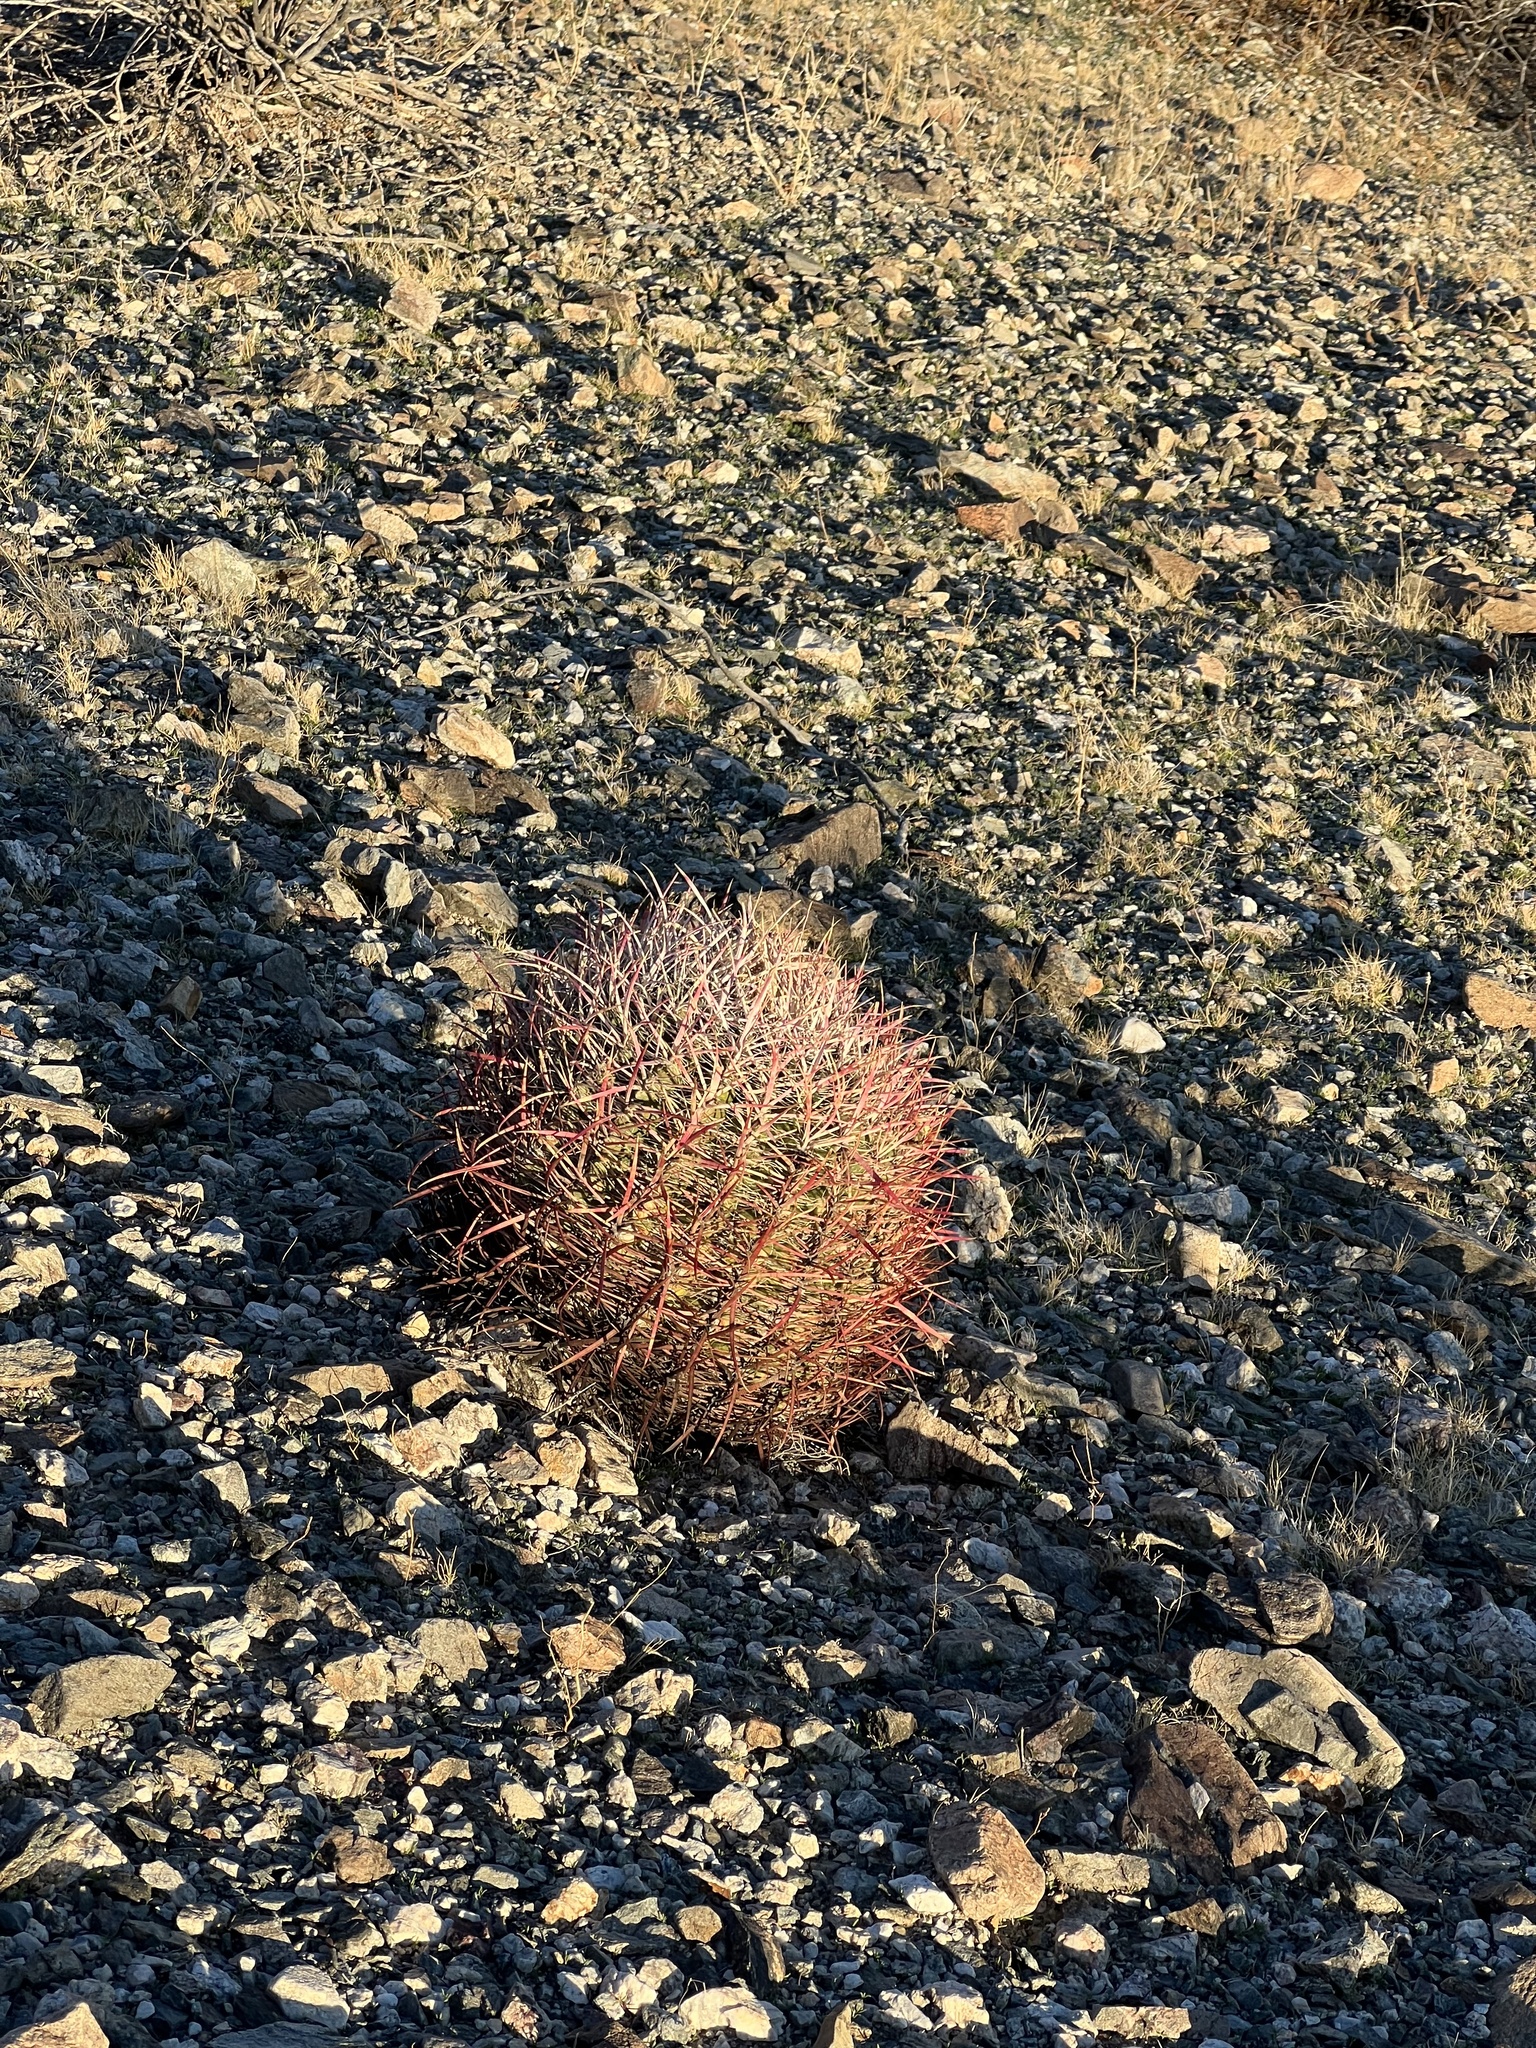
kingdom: Plantae
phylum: Tracheophyta
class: Magnoliopsida
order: Caryophyllales
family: Cactaceae
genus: Ferocactus
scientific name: Ferocactus cylindraceus
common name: California barrel cactus
